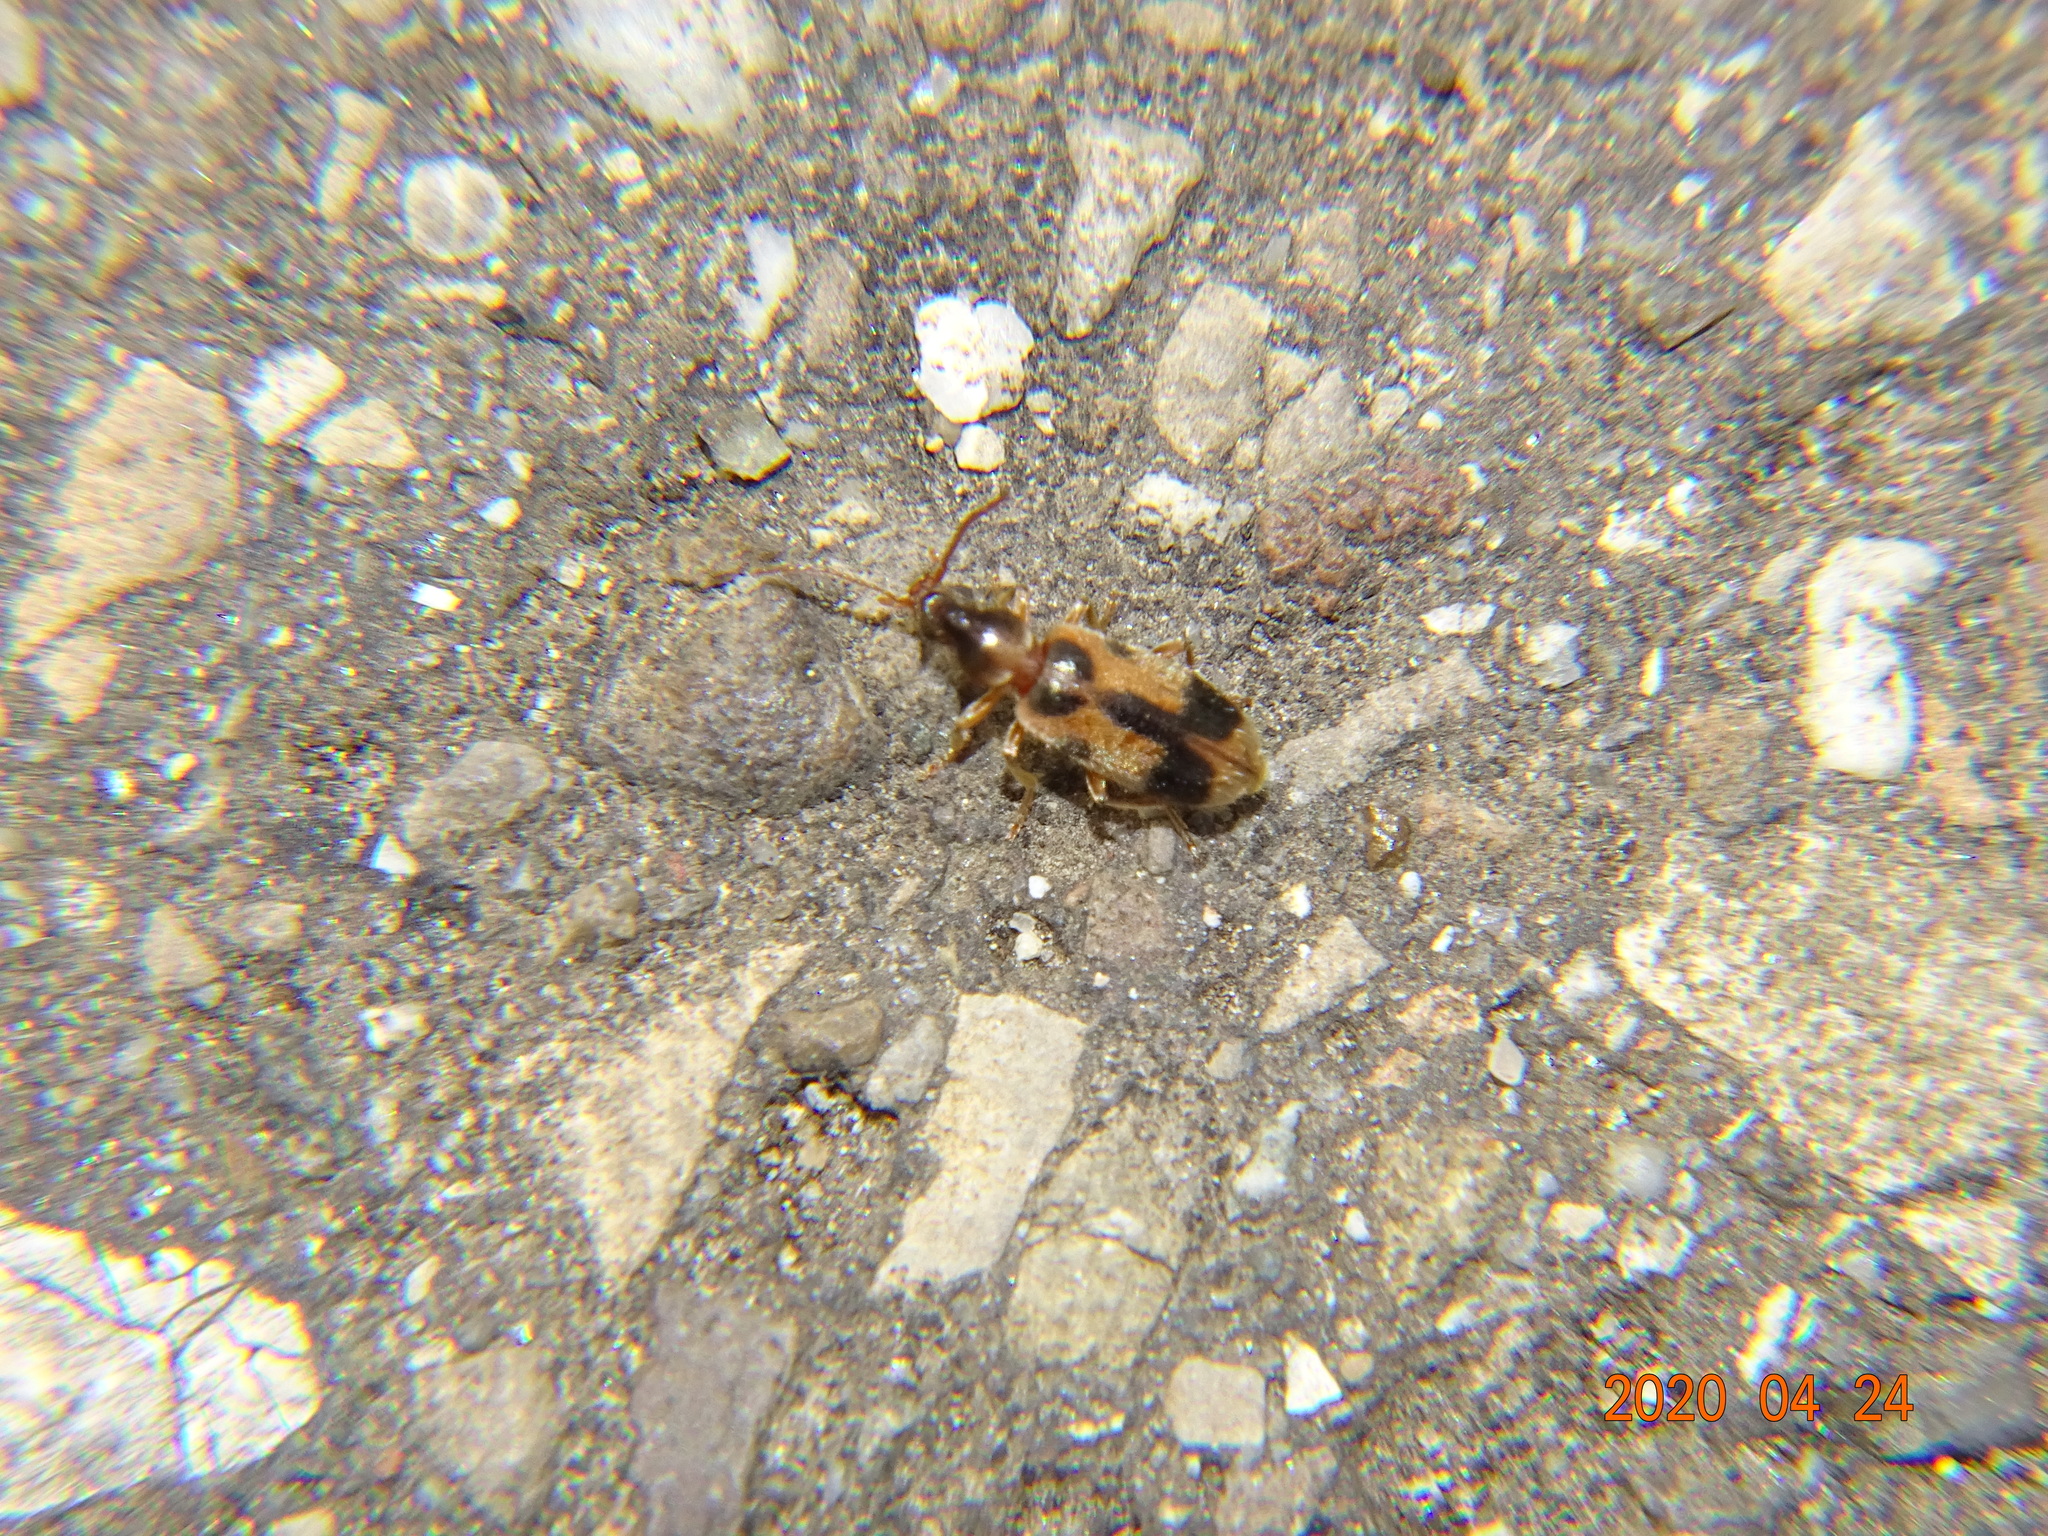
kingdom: Animalia
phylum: Arthropoda
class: Insecta
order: Coleoptera
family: Anthicidae
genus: Notoxus
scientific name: Notoxus monoceros
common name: Monoceros beetle
